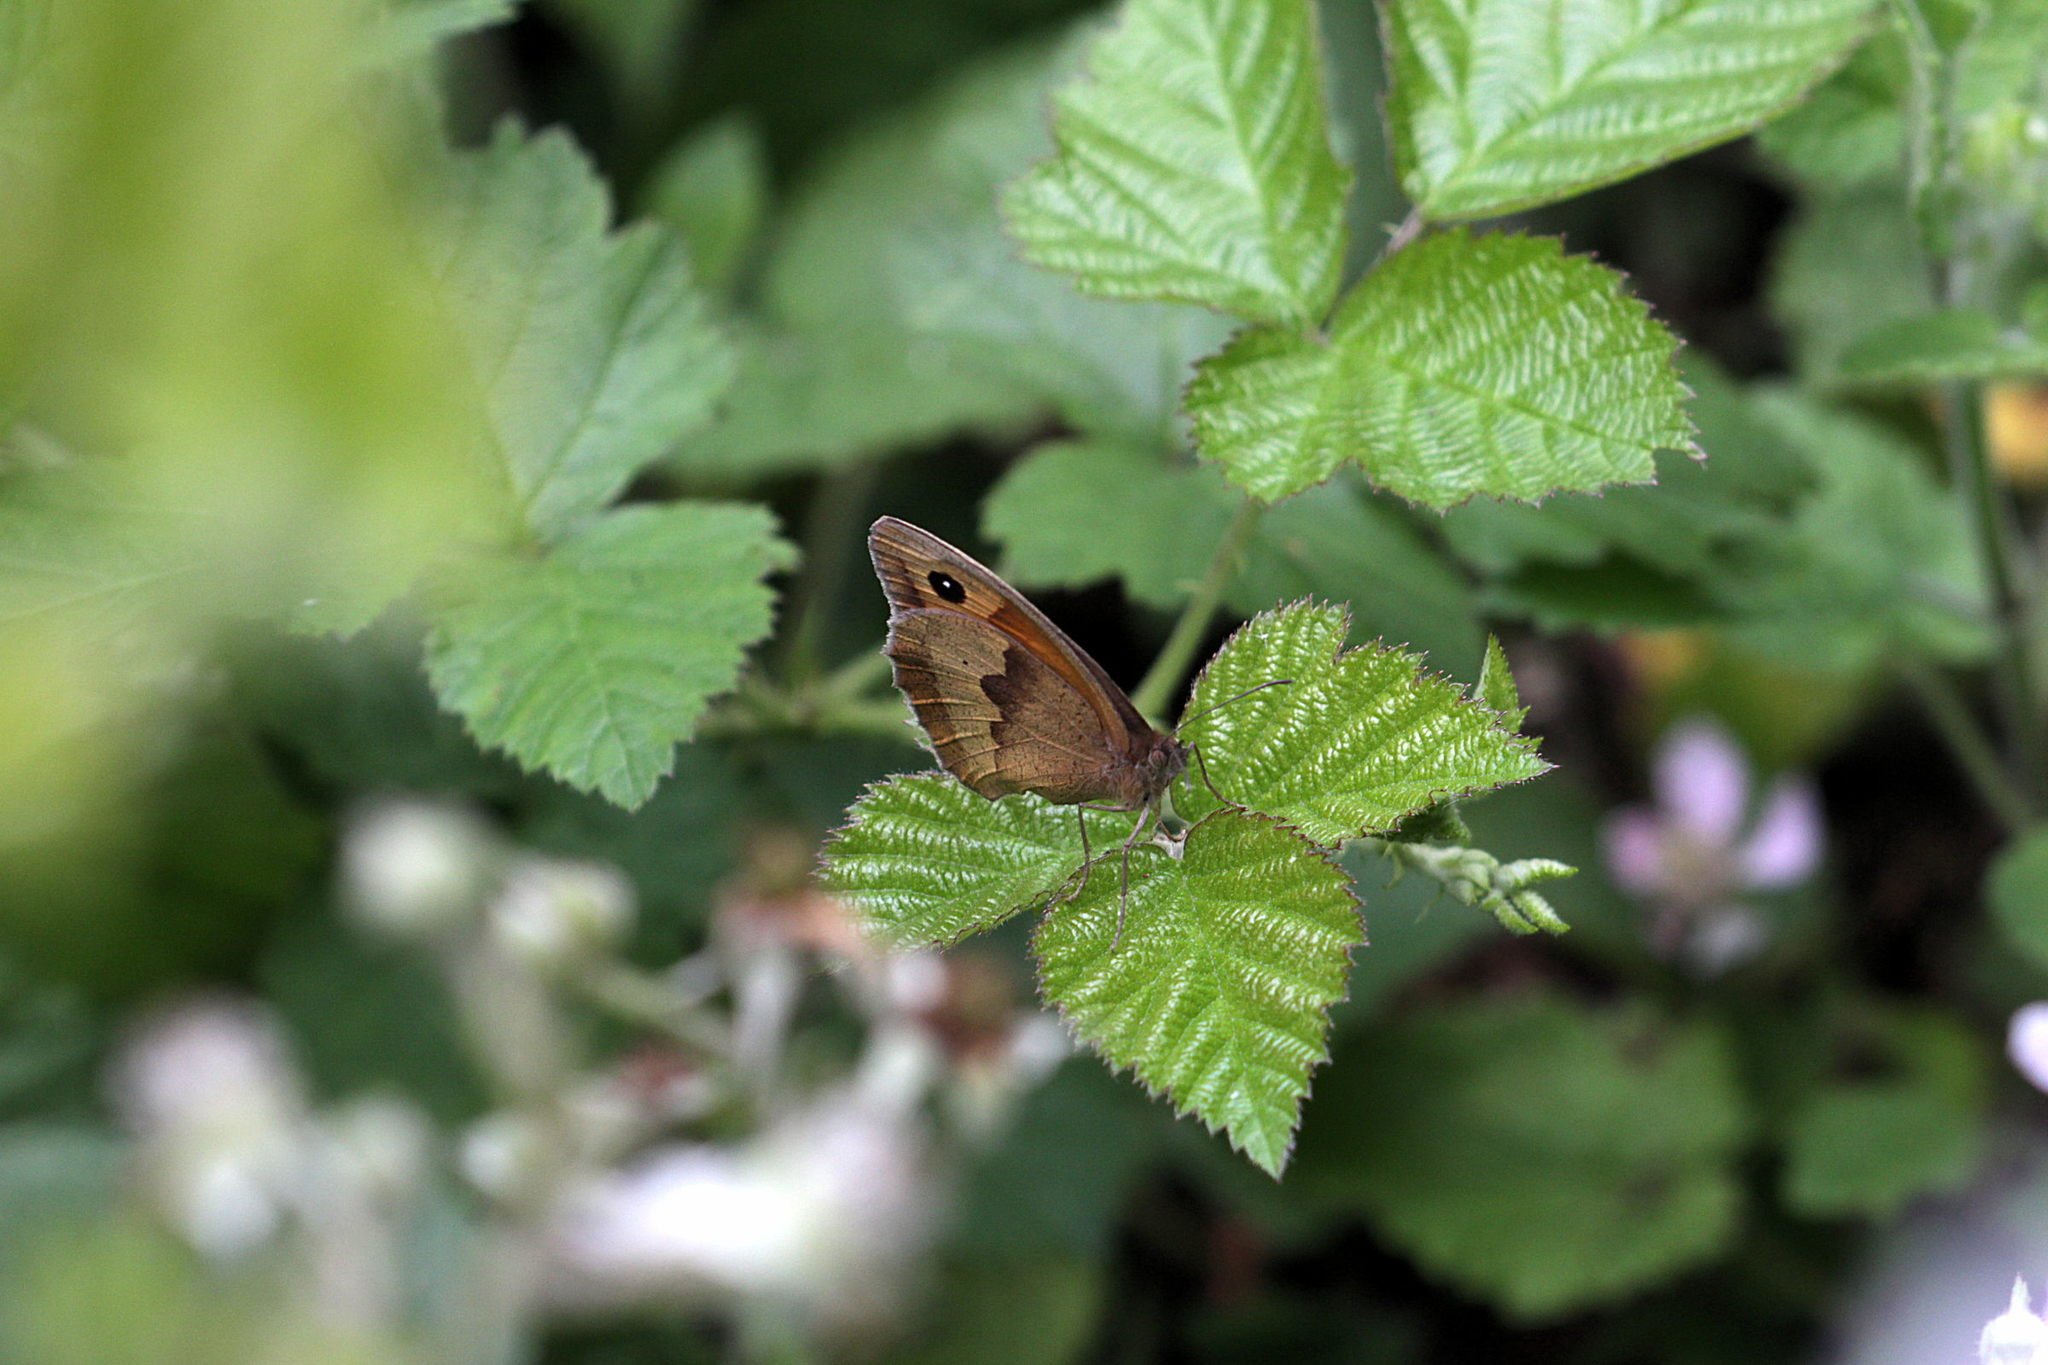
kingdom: Animalia
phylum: Arthropoda
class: Insecta
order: Lepidoptera
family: Nymphalidae
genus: Maniola
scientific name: Maniola jurtina
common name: Meadow brown
